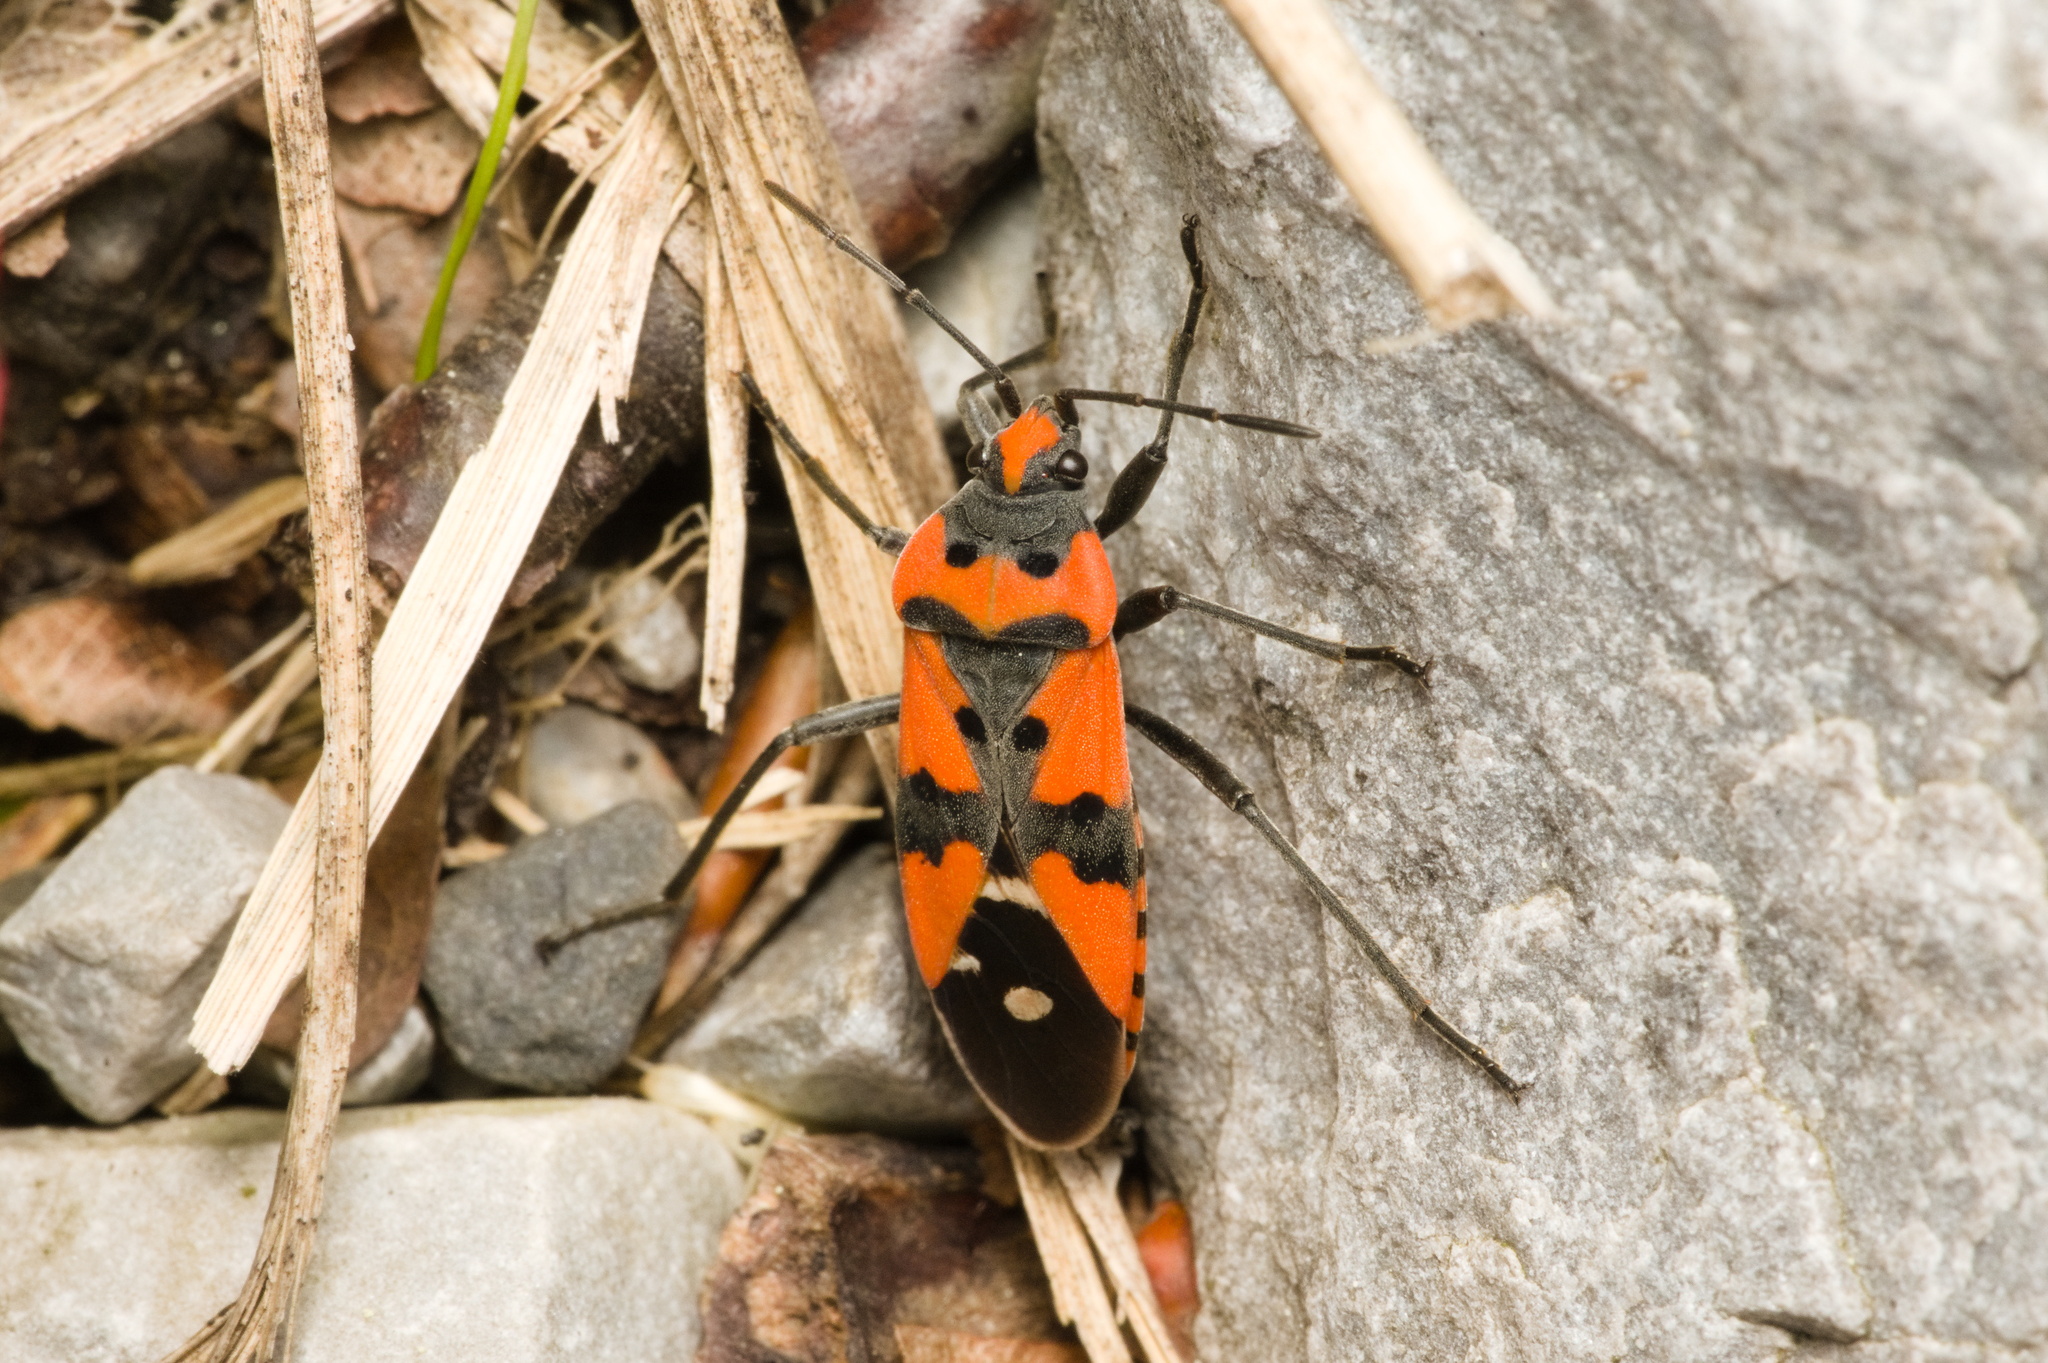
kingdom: Animalia
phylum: Arthropoda
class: Insecta
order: Hemiptera
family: Lygaeidae
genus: Lygaeus
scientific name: Lygaeus equestris
